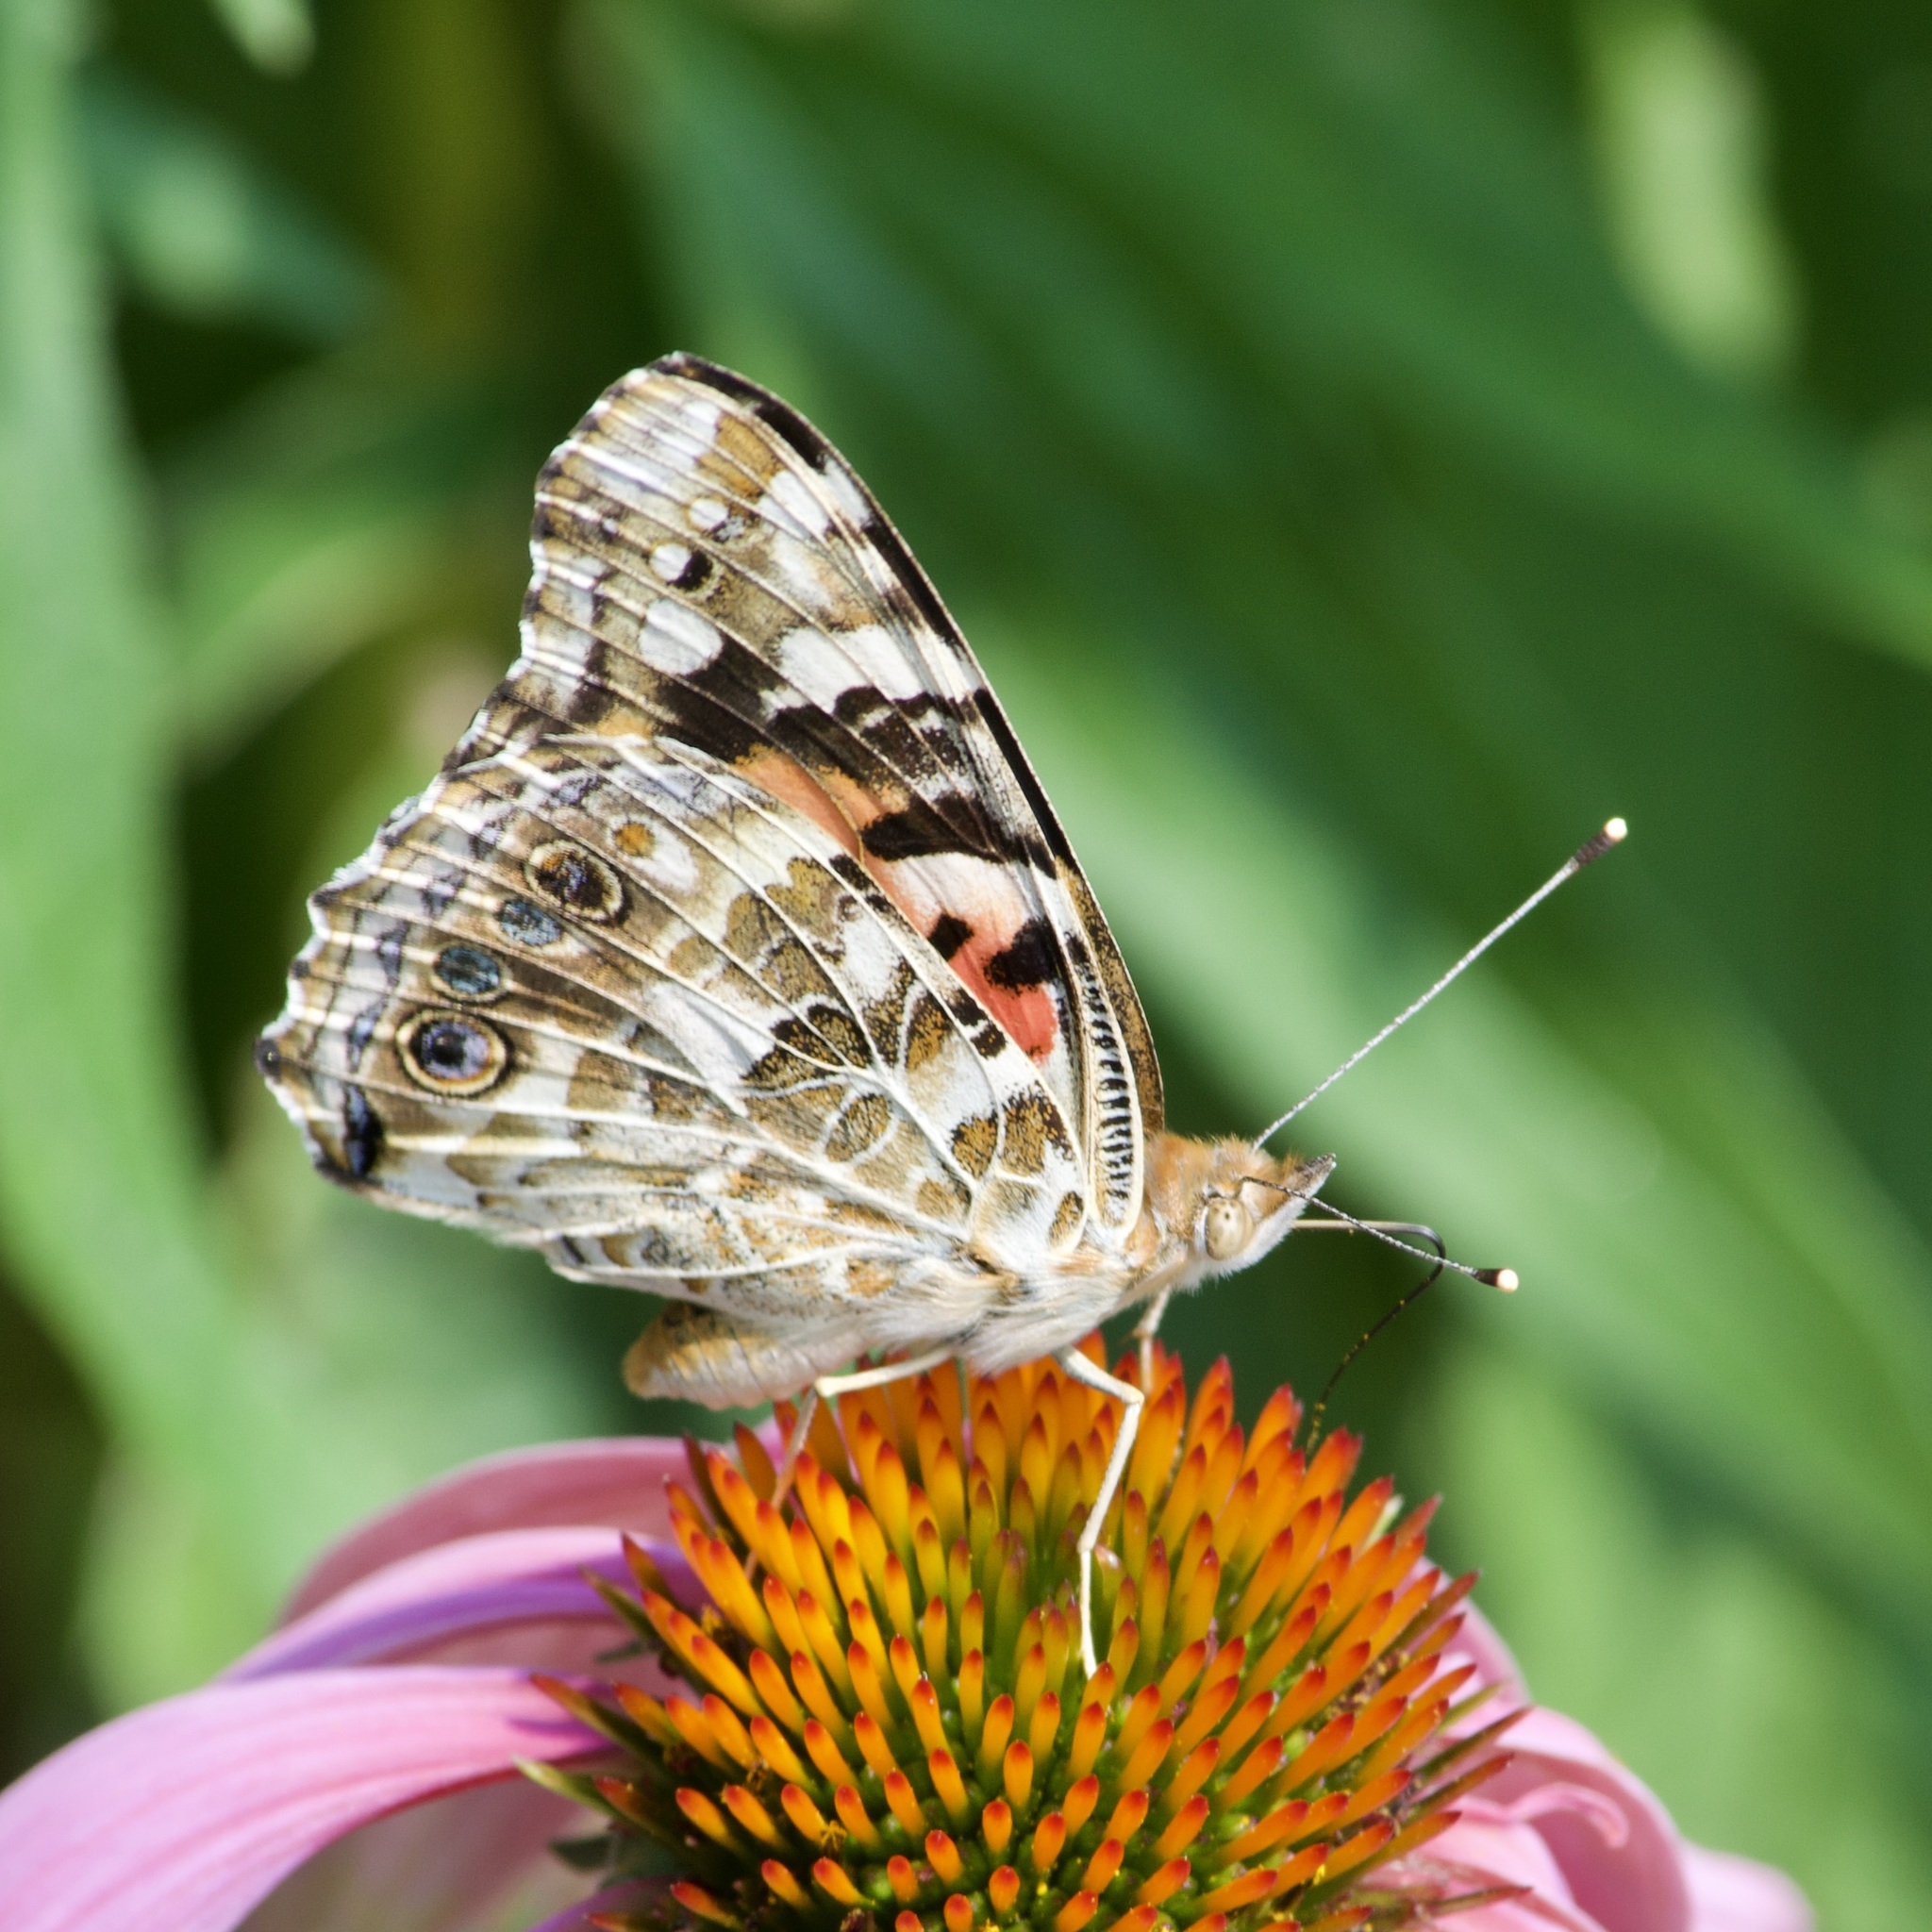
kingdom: Animalia
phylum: Arthropoda
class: Insecta
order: Lepidoptera
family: Nymphalidae
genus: Vanessa
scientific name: Vanessa cardui
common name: Painted lady
